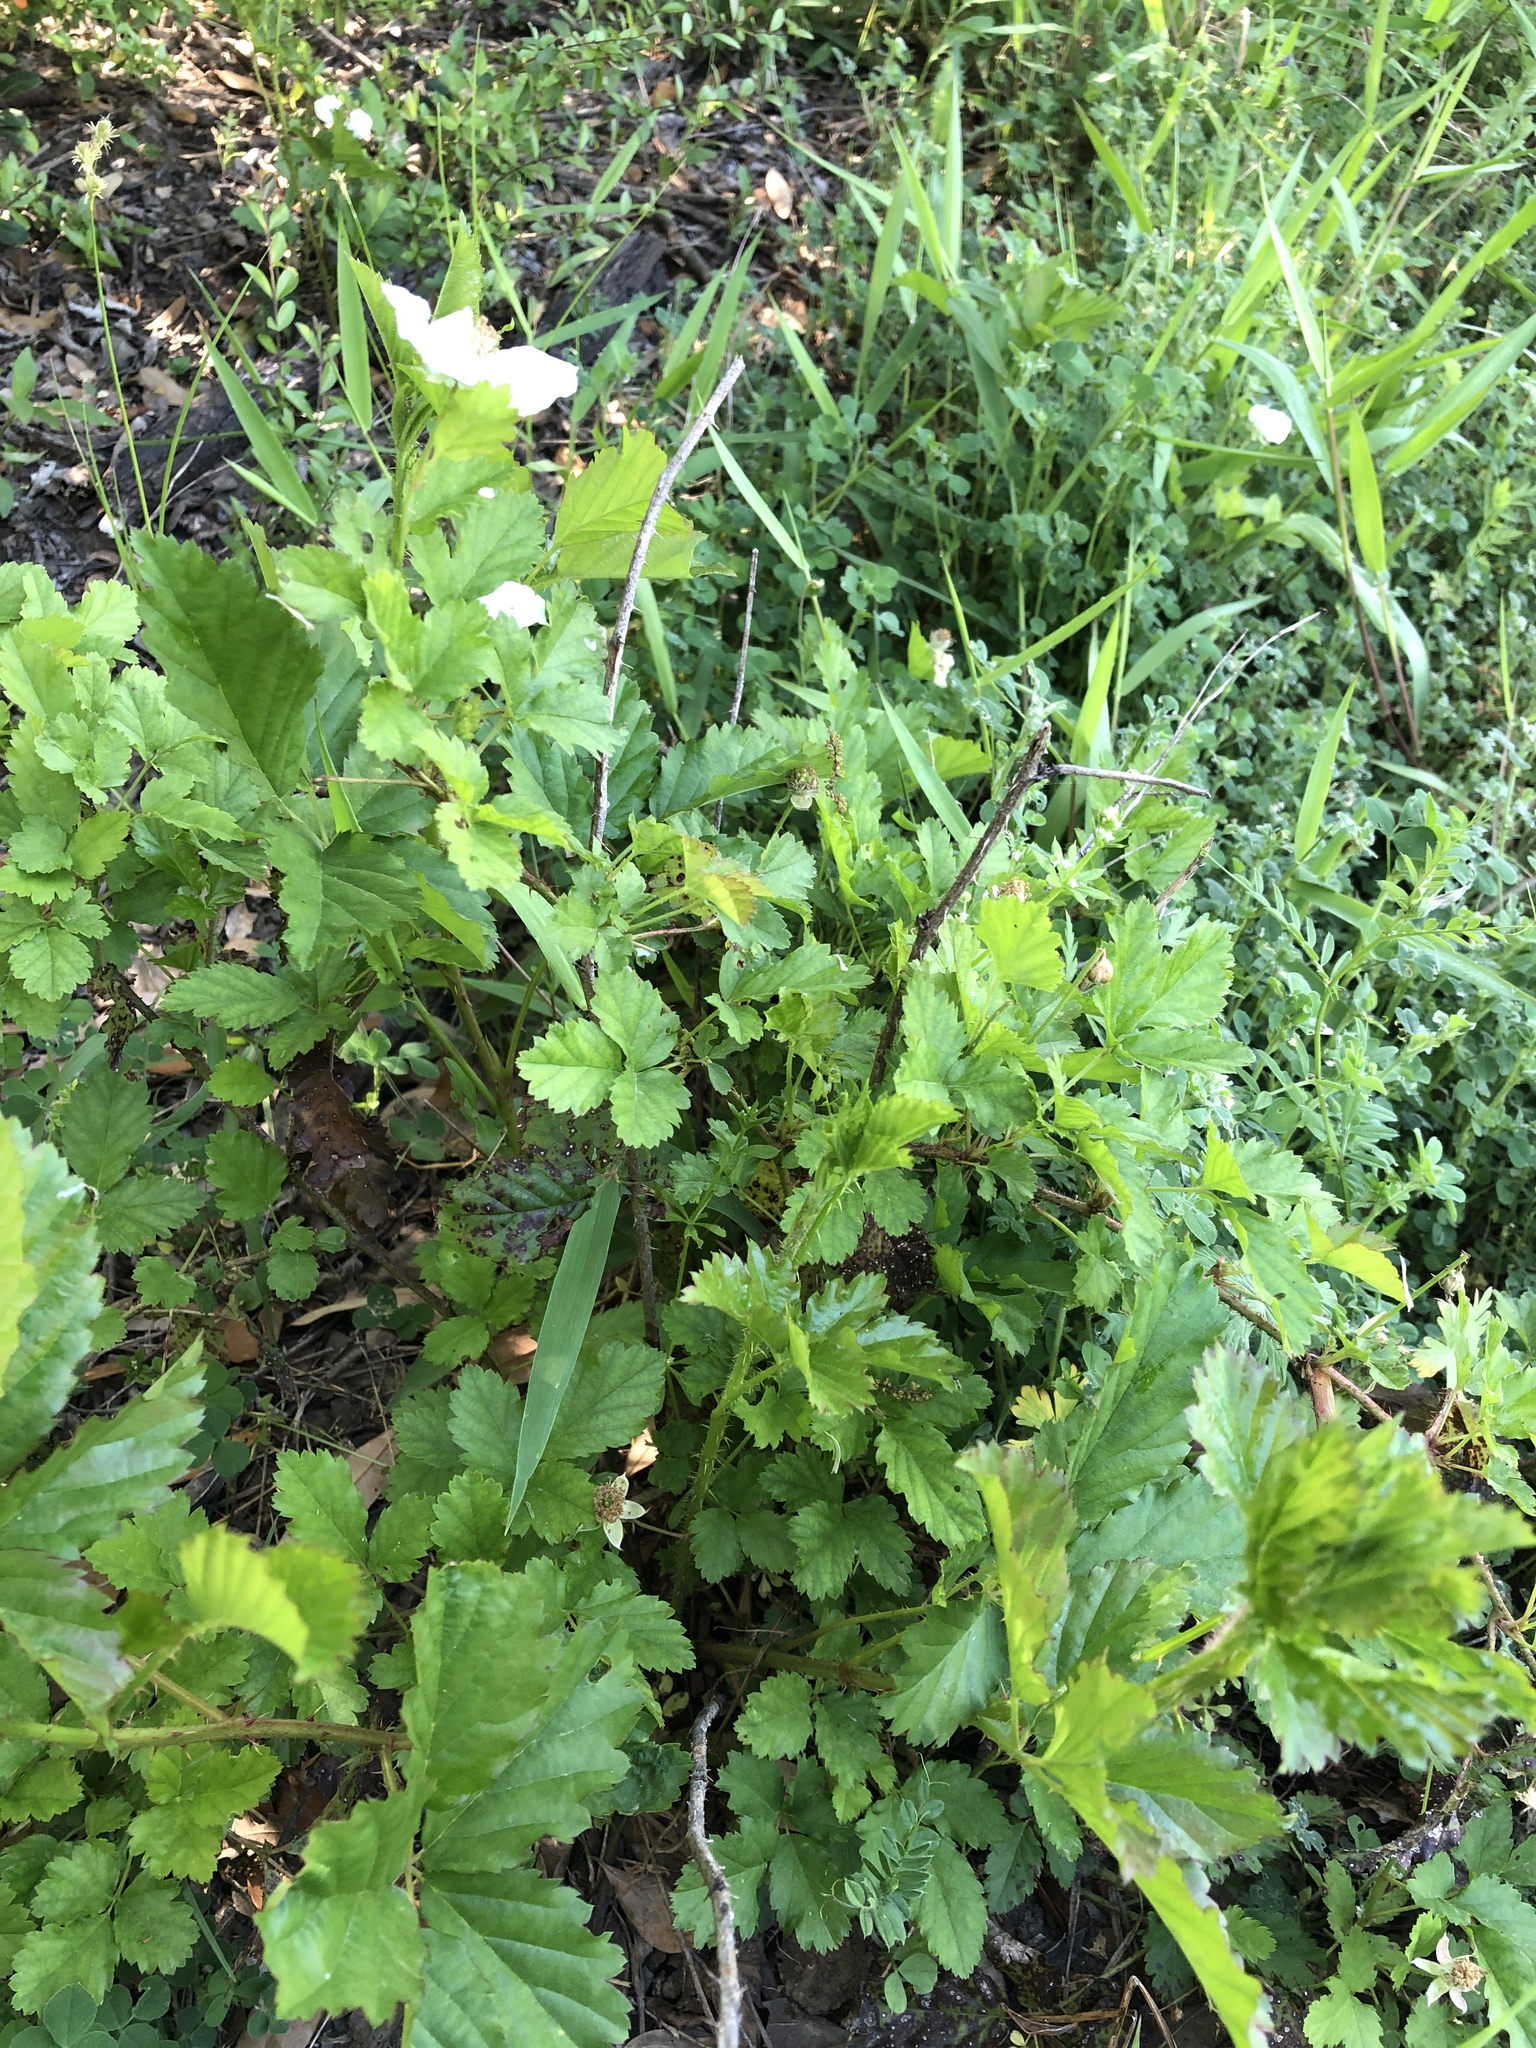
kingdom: Plantae
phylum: Tracheophyta
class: Magnoliopsida
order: Rosales
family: Rosaceae
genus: Rubus
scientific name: Rubus trivialis
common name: Southern dewberry
